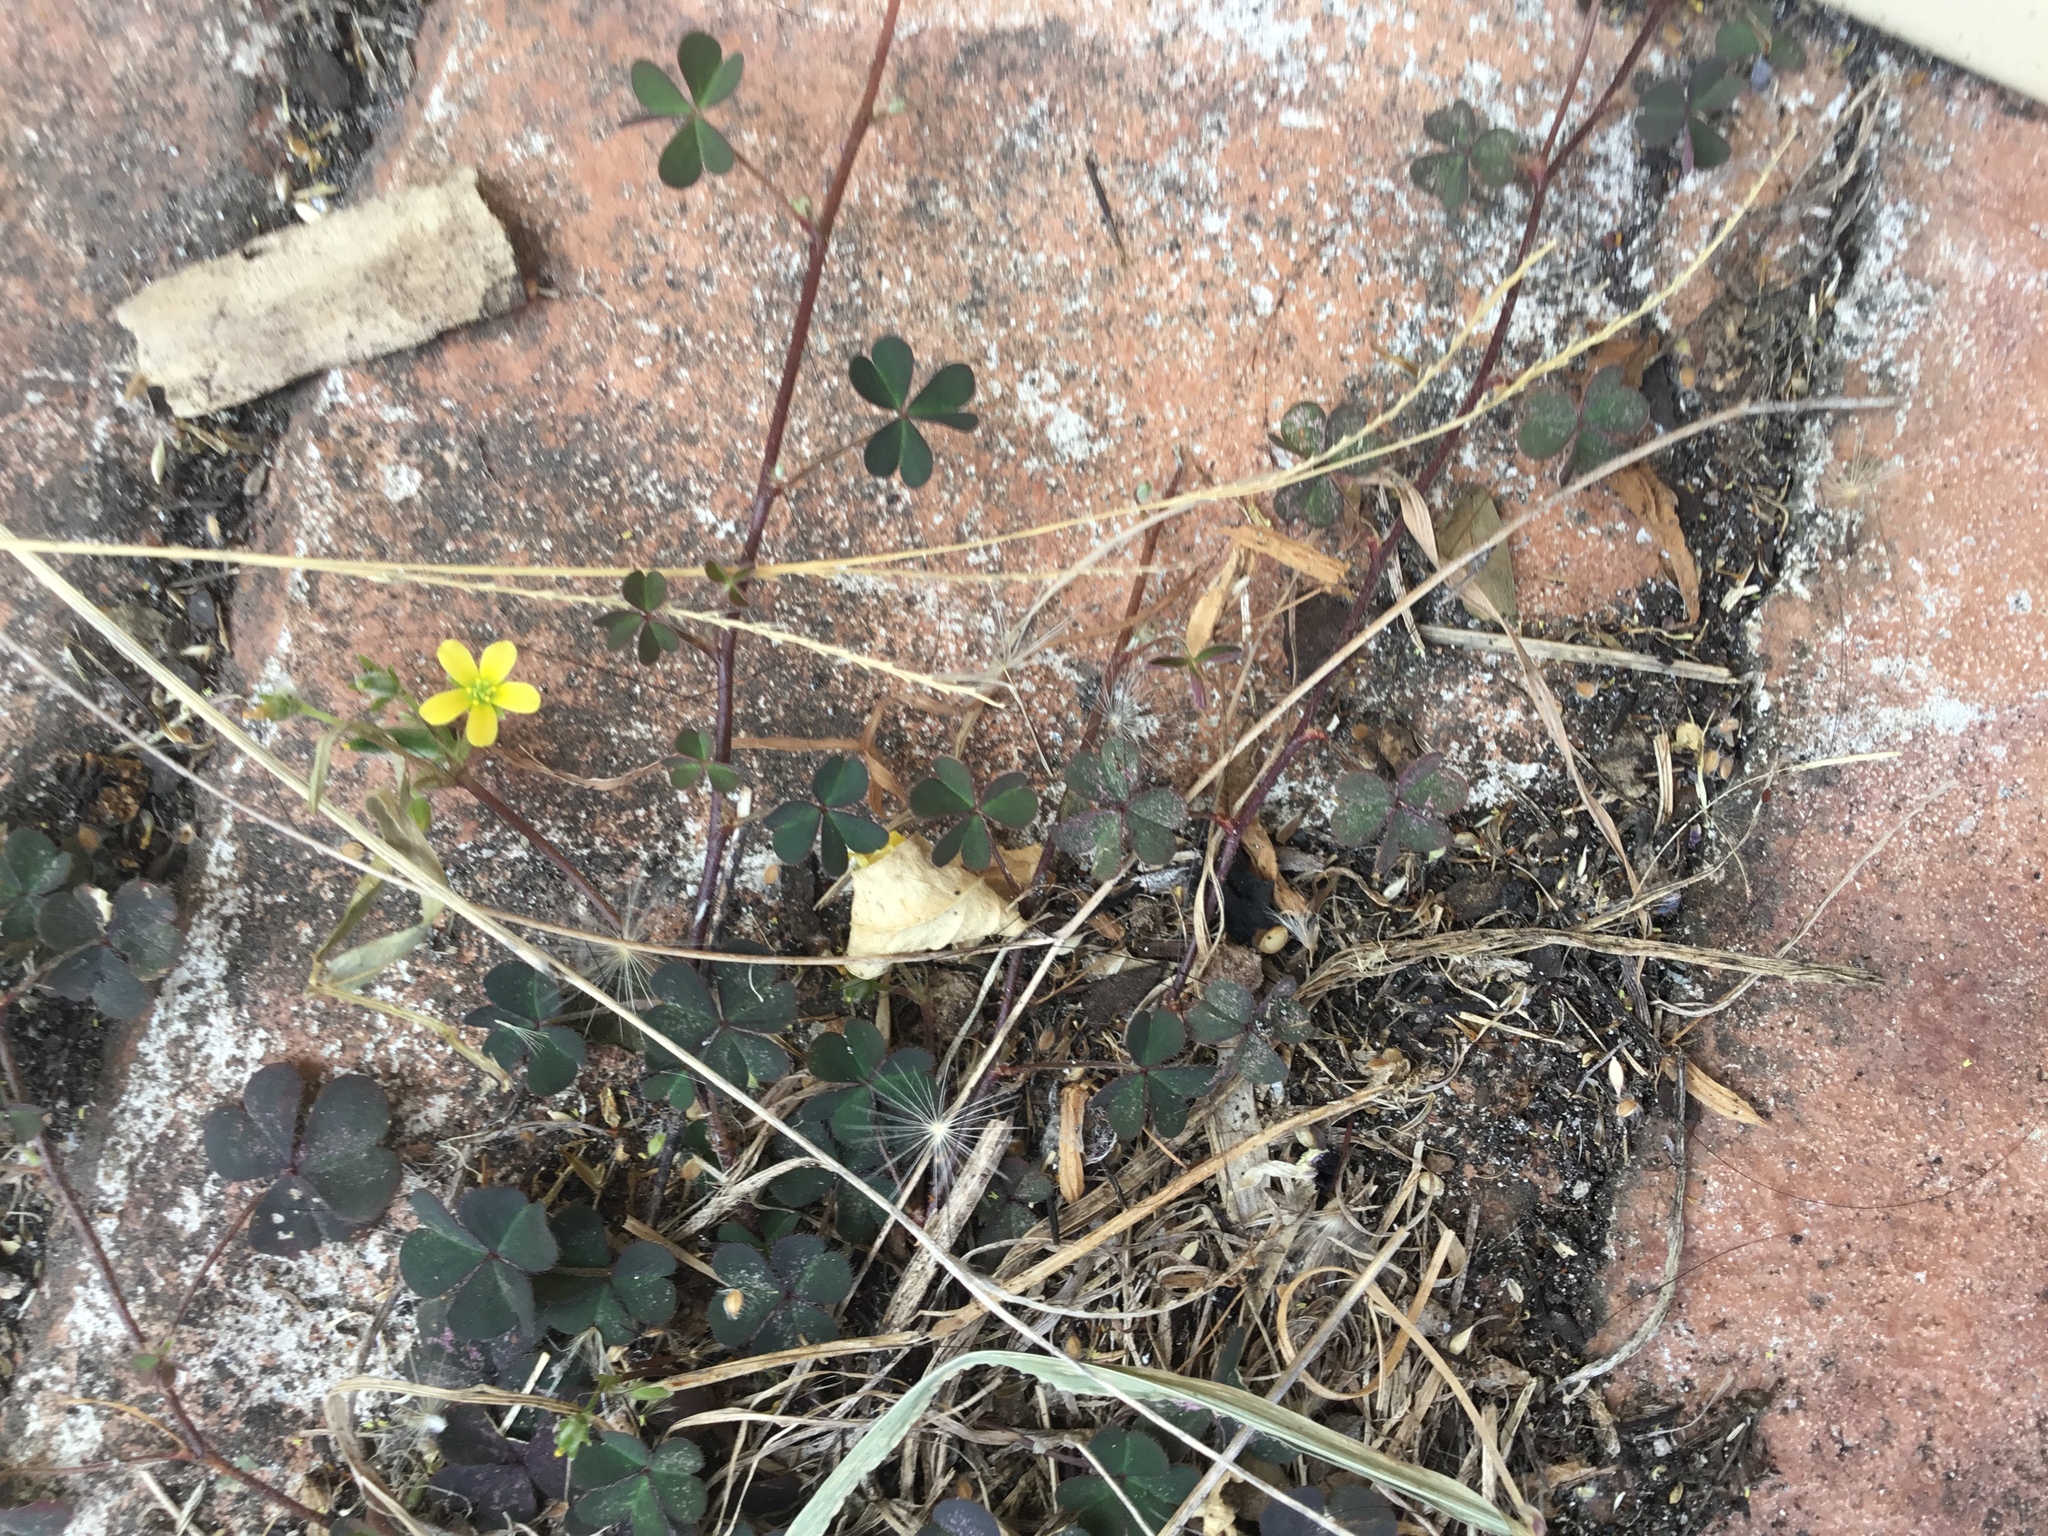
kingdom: Plantae
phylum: Tracheophyta
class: Magnoliopsida
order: Oxalidales
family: Oxalidaceae
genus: Oxalis
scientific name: Oxalis corniculata
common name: Procumbent yellow-sorrel
